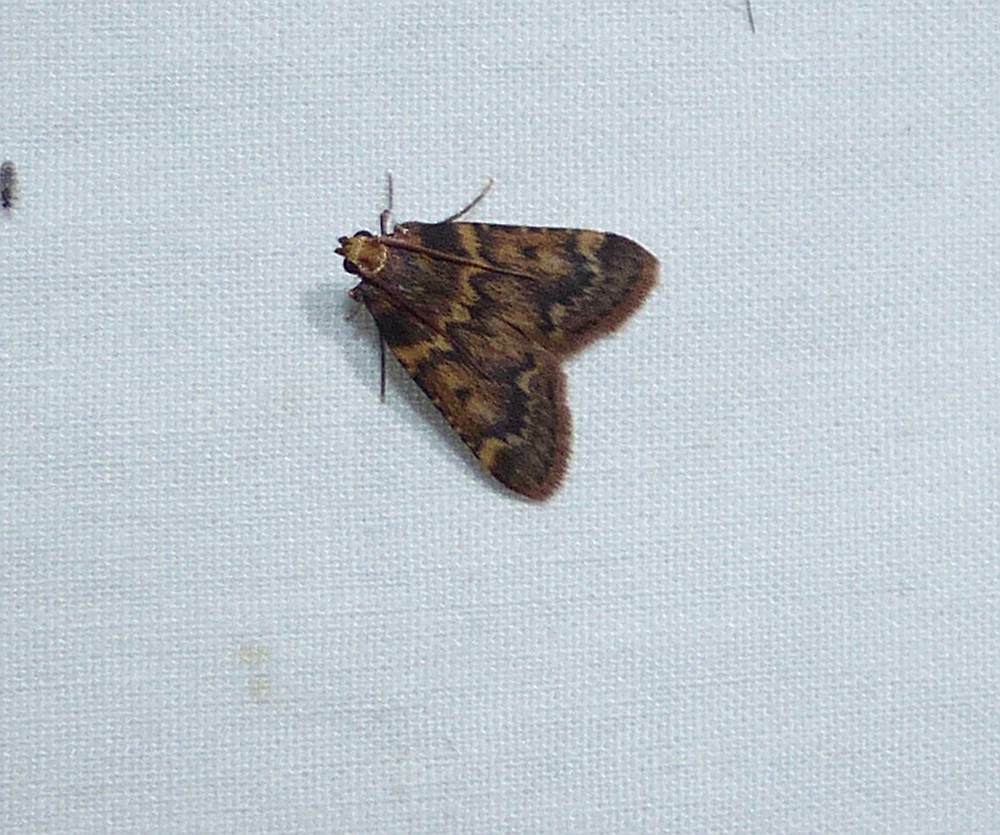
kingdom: Animalia
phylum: Arthropoda
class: Insecta
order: Lepidoptera
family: Pyralidae
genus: Aglossa
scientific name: Aglossa disciferalis
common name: Pink-masked pyralid moth
